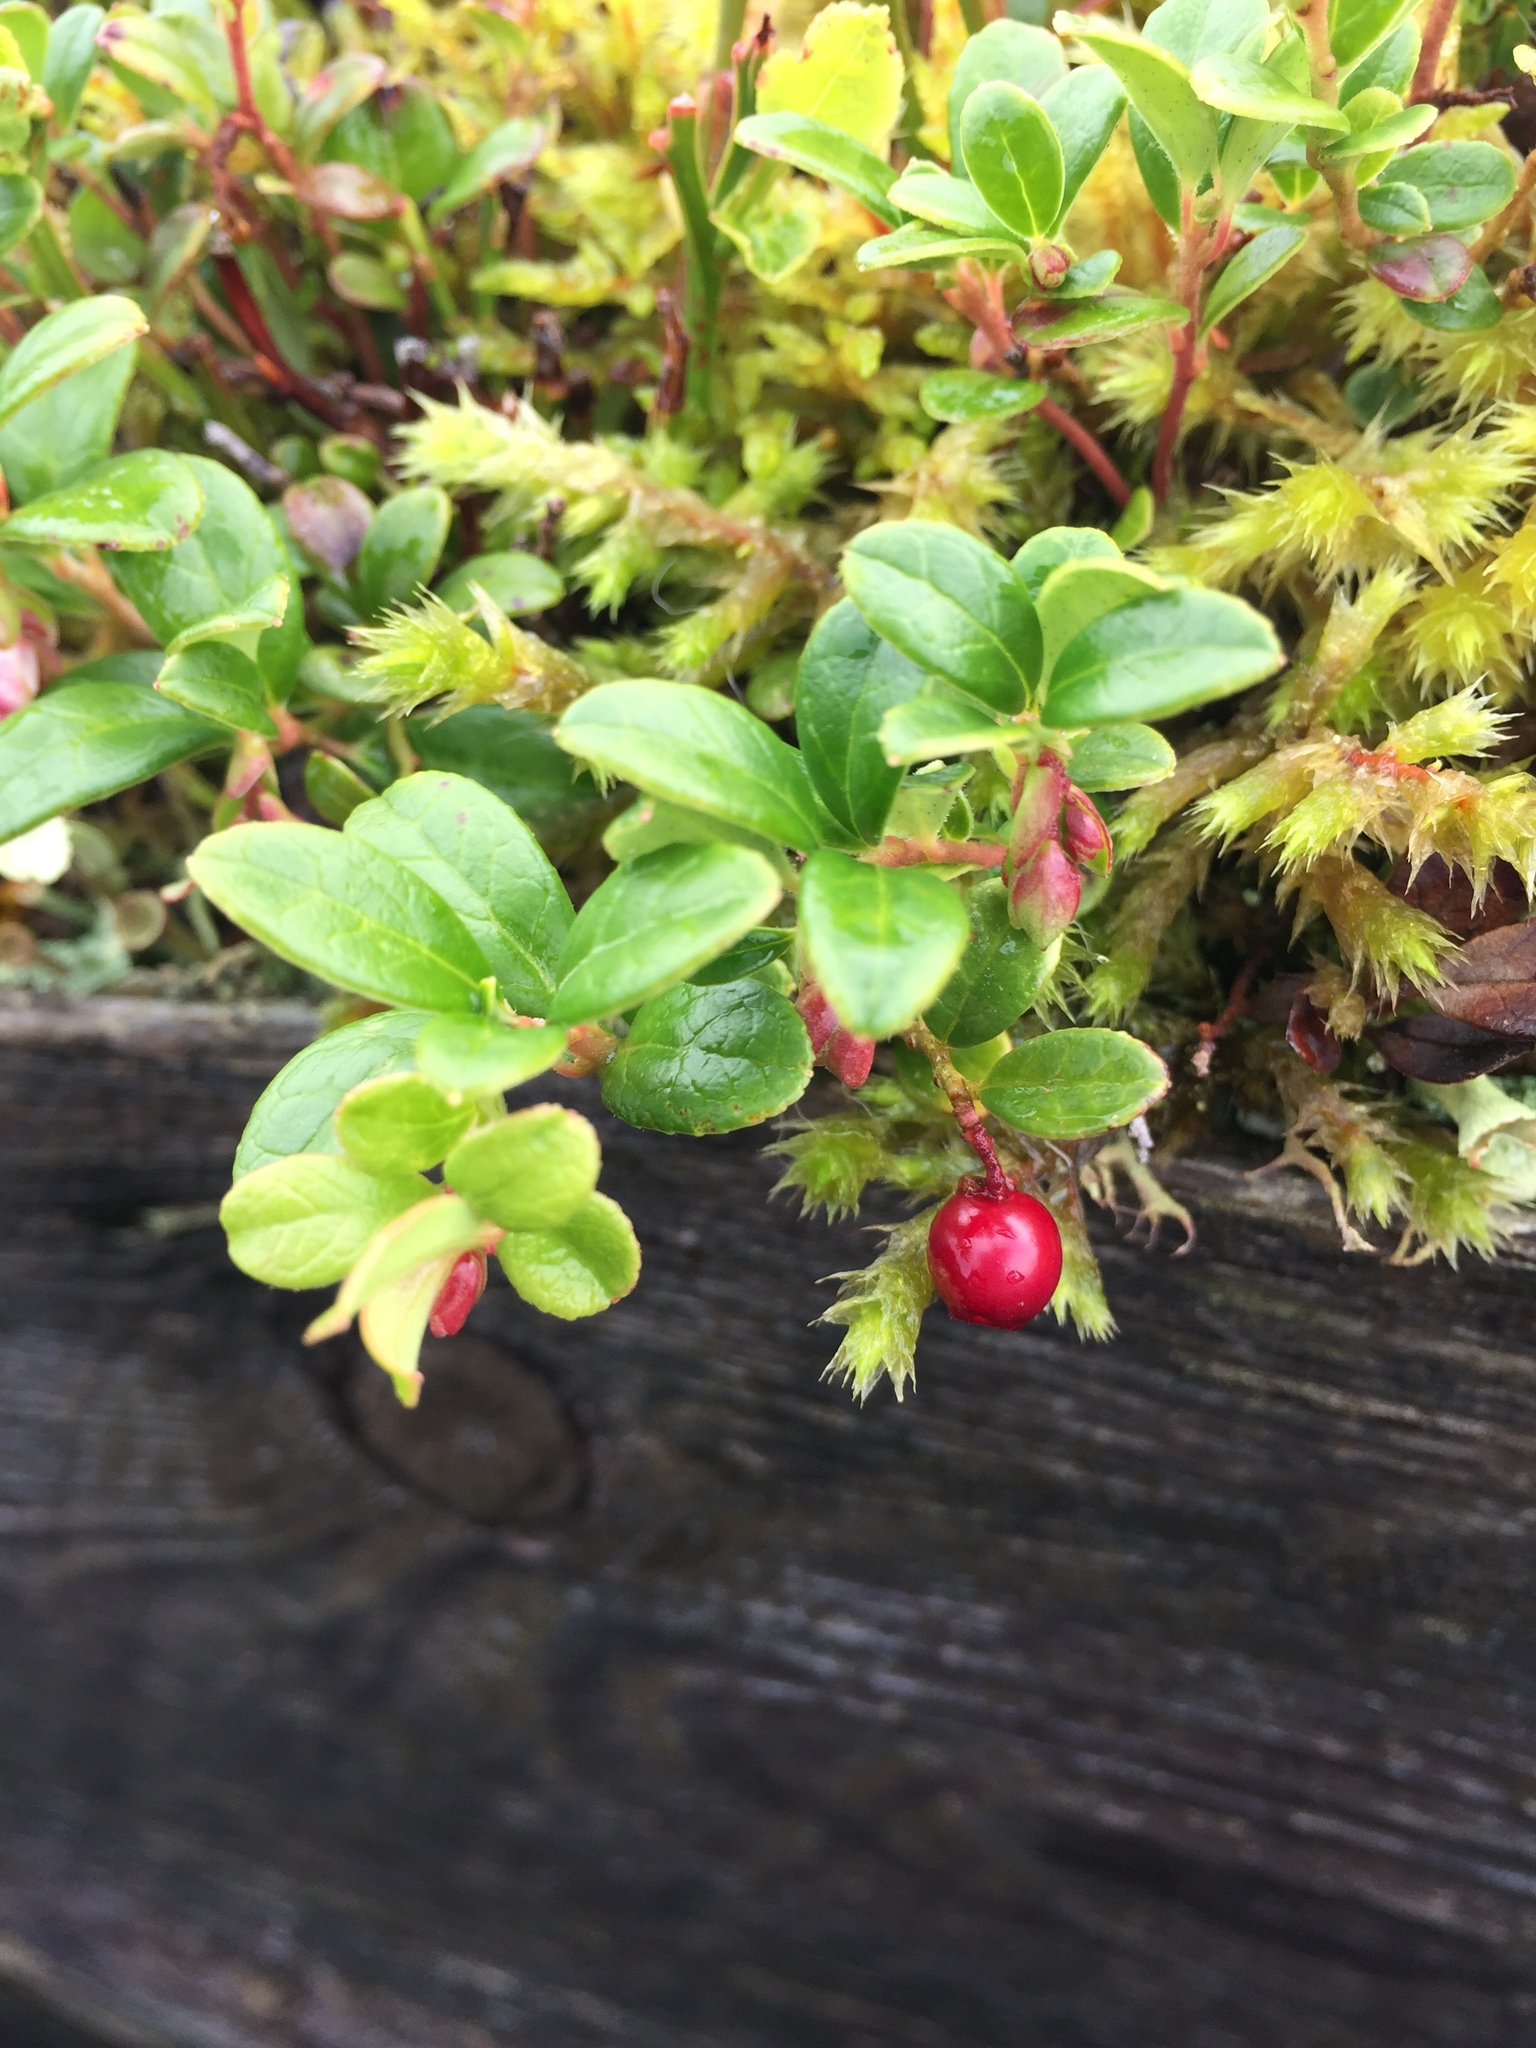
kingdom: Plantae
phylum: Tracheophyta
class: Magnoliopsida
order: Ericales
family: Ericaceae
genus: Vaccinium
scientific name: Vaccinium vitis-idaea
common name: Cowberry
